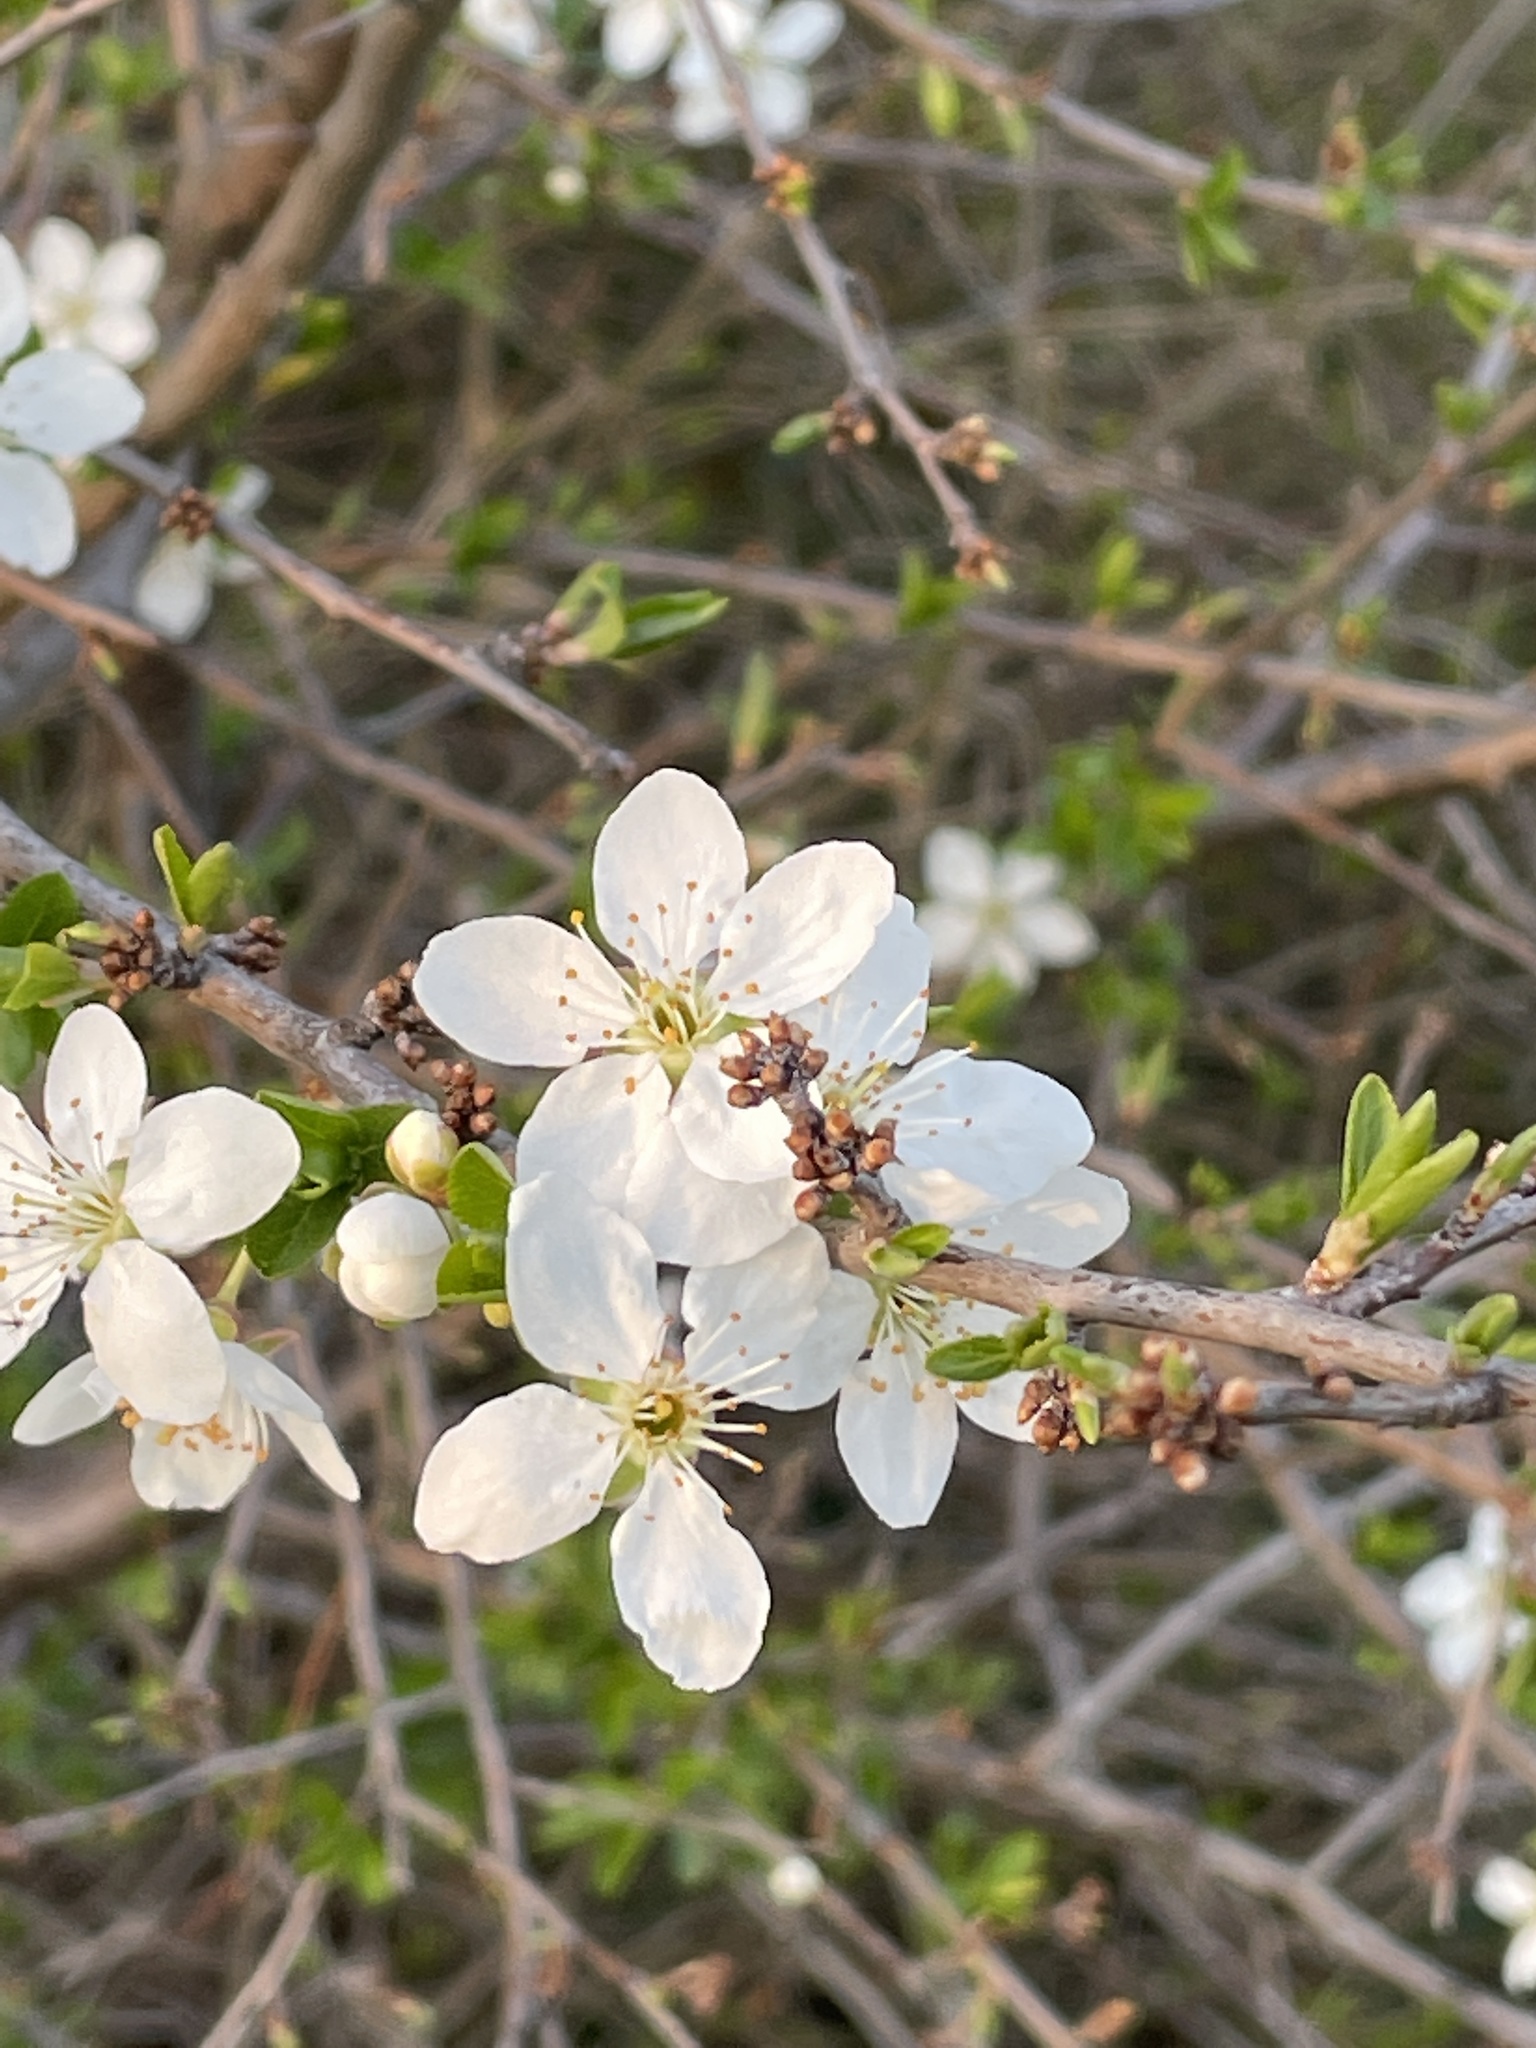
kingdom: Plantae
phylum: Tracheophyta
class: Magnoliopsida
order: Rosales
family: Rosaceae
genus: Prunus
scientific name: Prunus cerasifera
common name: Cherry plum
